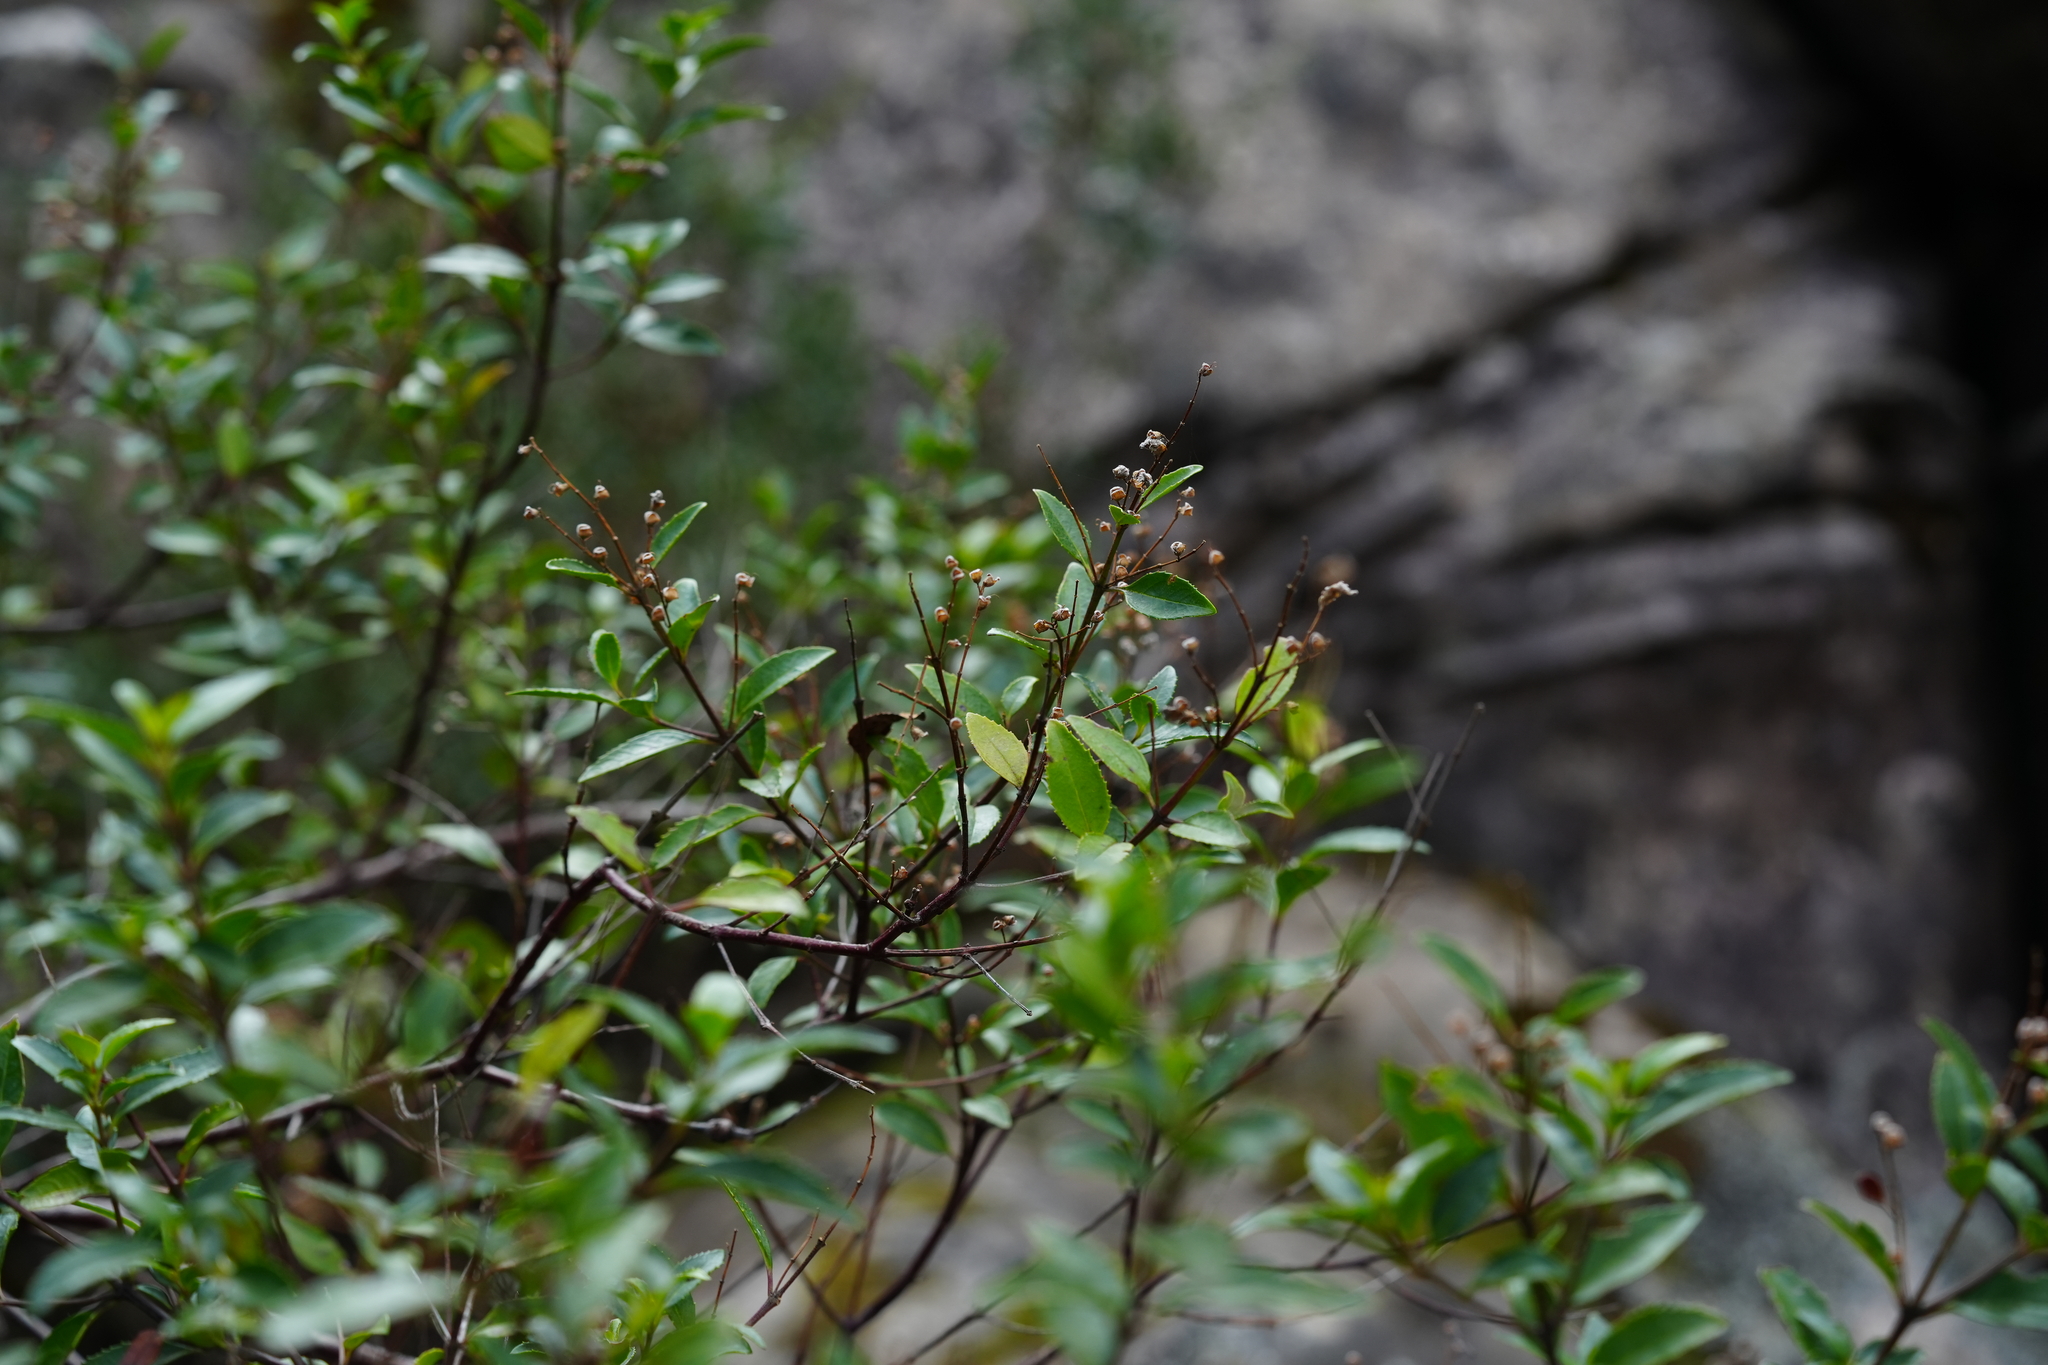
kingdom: Plantae
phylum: Tracheophyta
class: Magnoliopsida
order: Lamiales
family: Lamiaceae
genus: Prostanthera
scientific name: Prostanthera lasianthos
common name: Mountain-lilac
